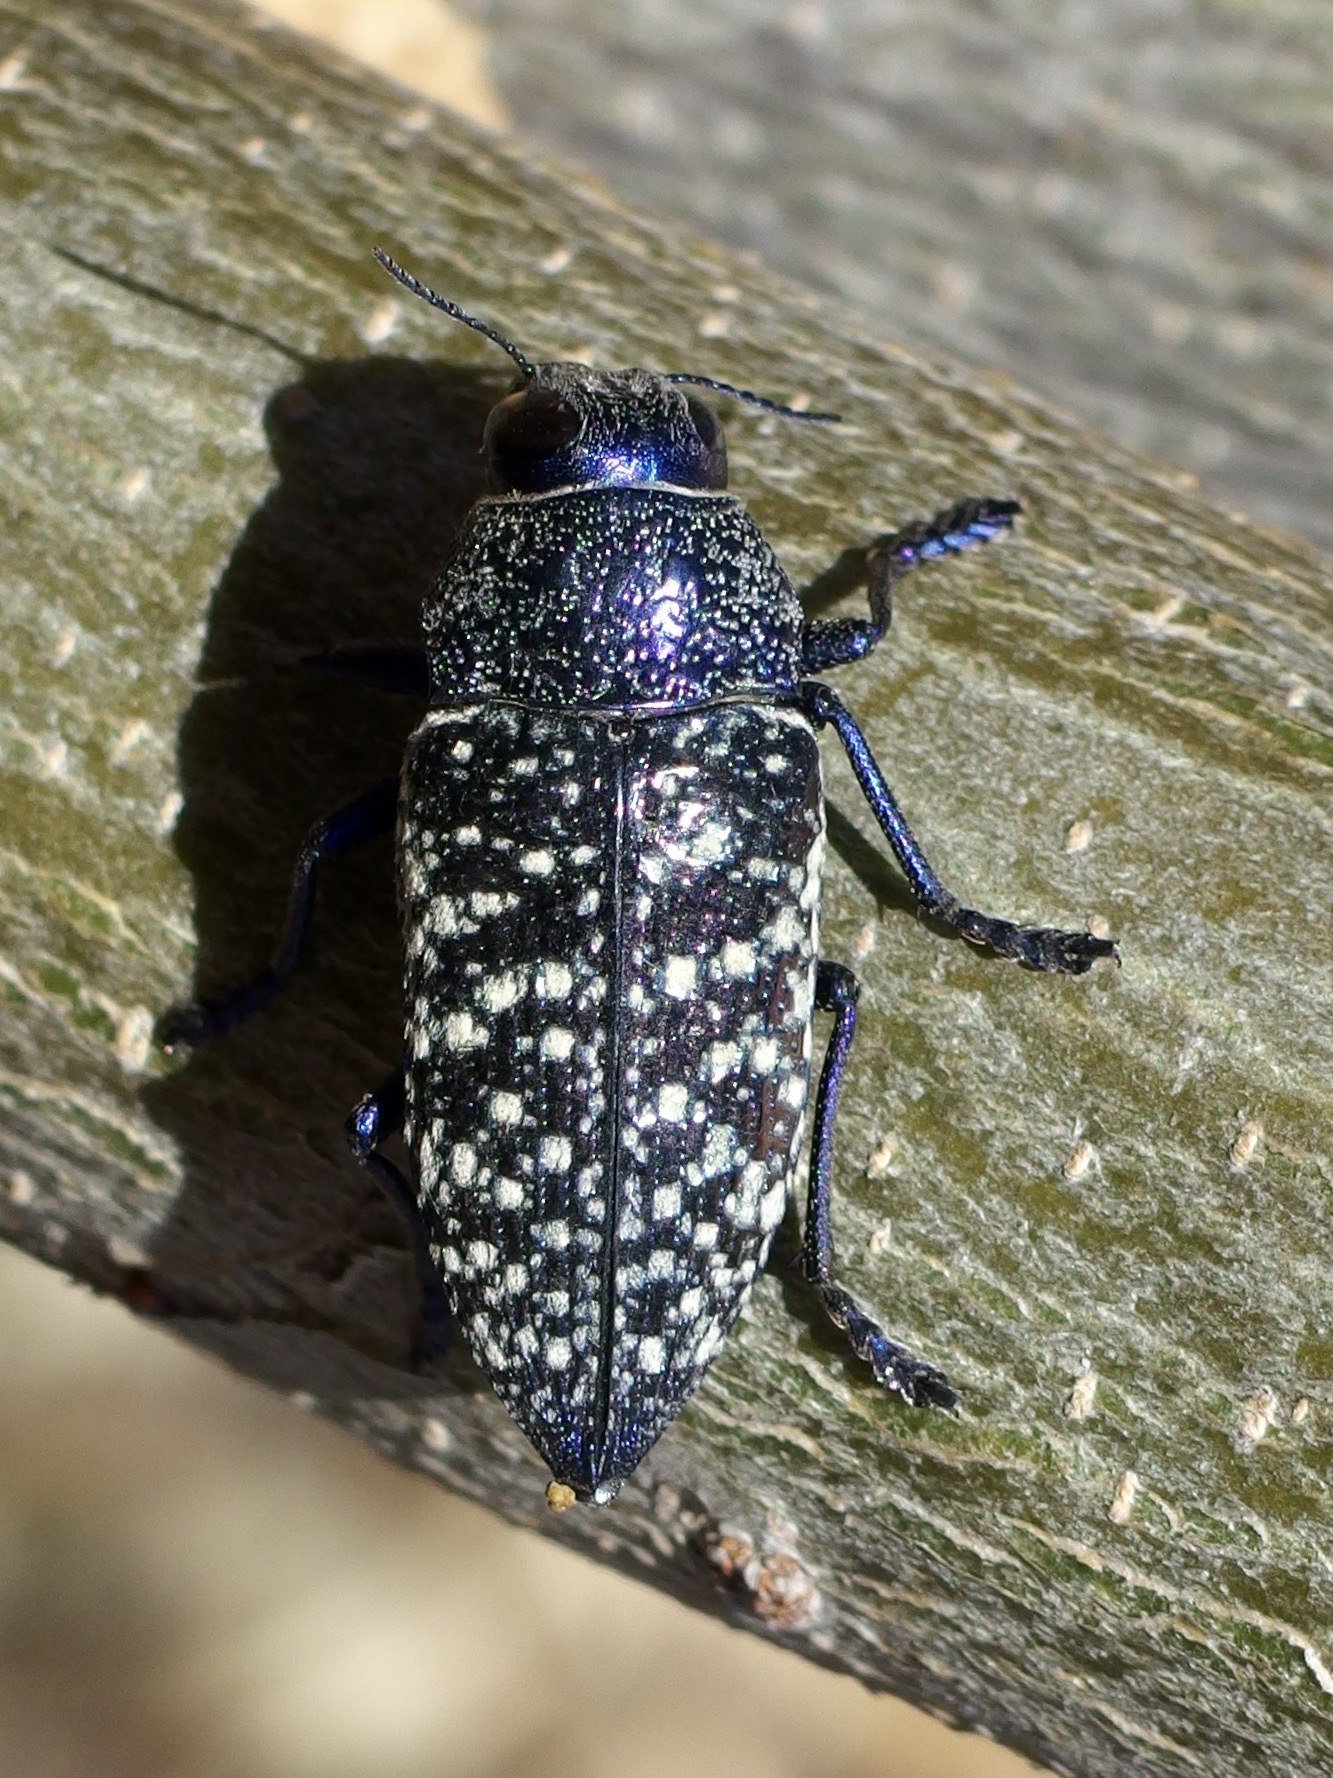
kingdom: Animalia
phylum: Arthropoda
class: Insecta
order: Coleoptera
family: Buprestidae
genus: Lampetis
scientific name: Lampetis webbii
